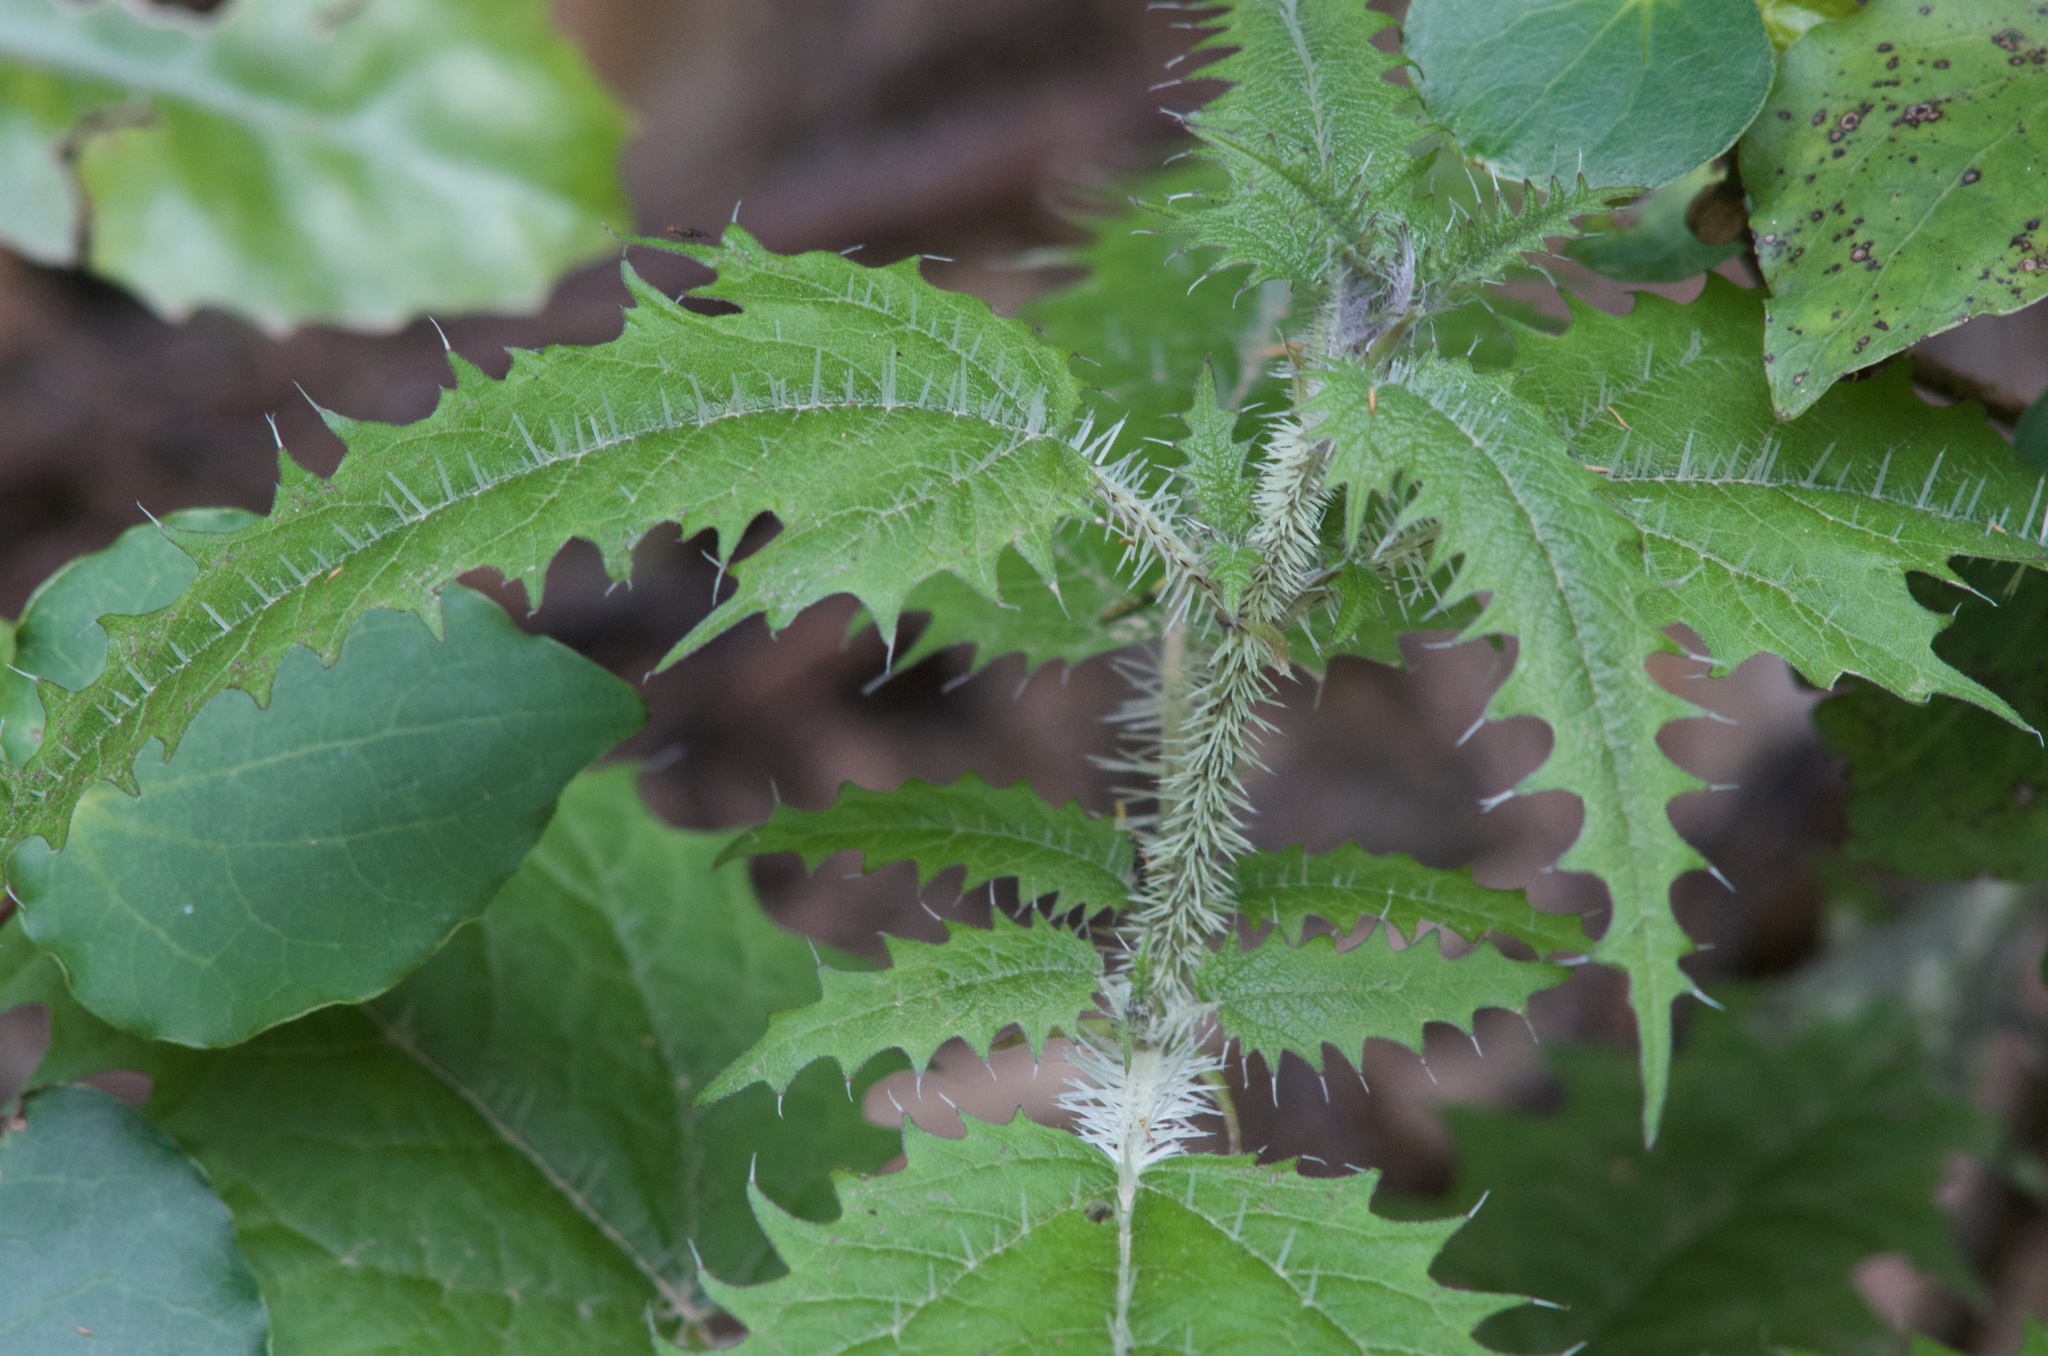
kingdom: Plantae
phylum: Tracheophyta
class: Magnoliopsida
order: Rosales
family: Urticaceae
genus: Urtica
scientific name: Urtica ferox
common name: Tree nettle
